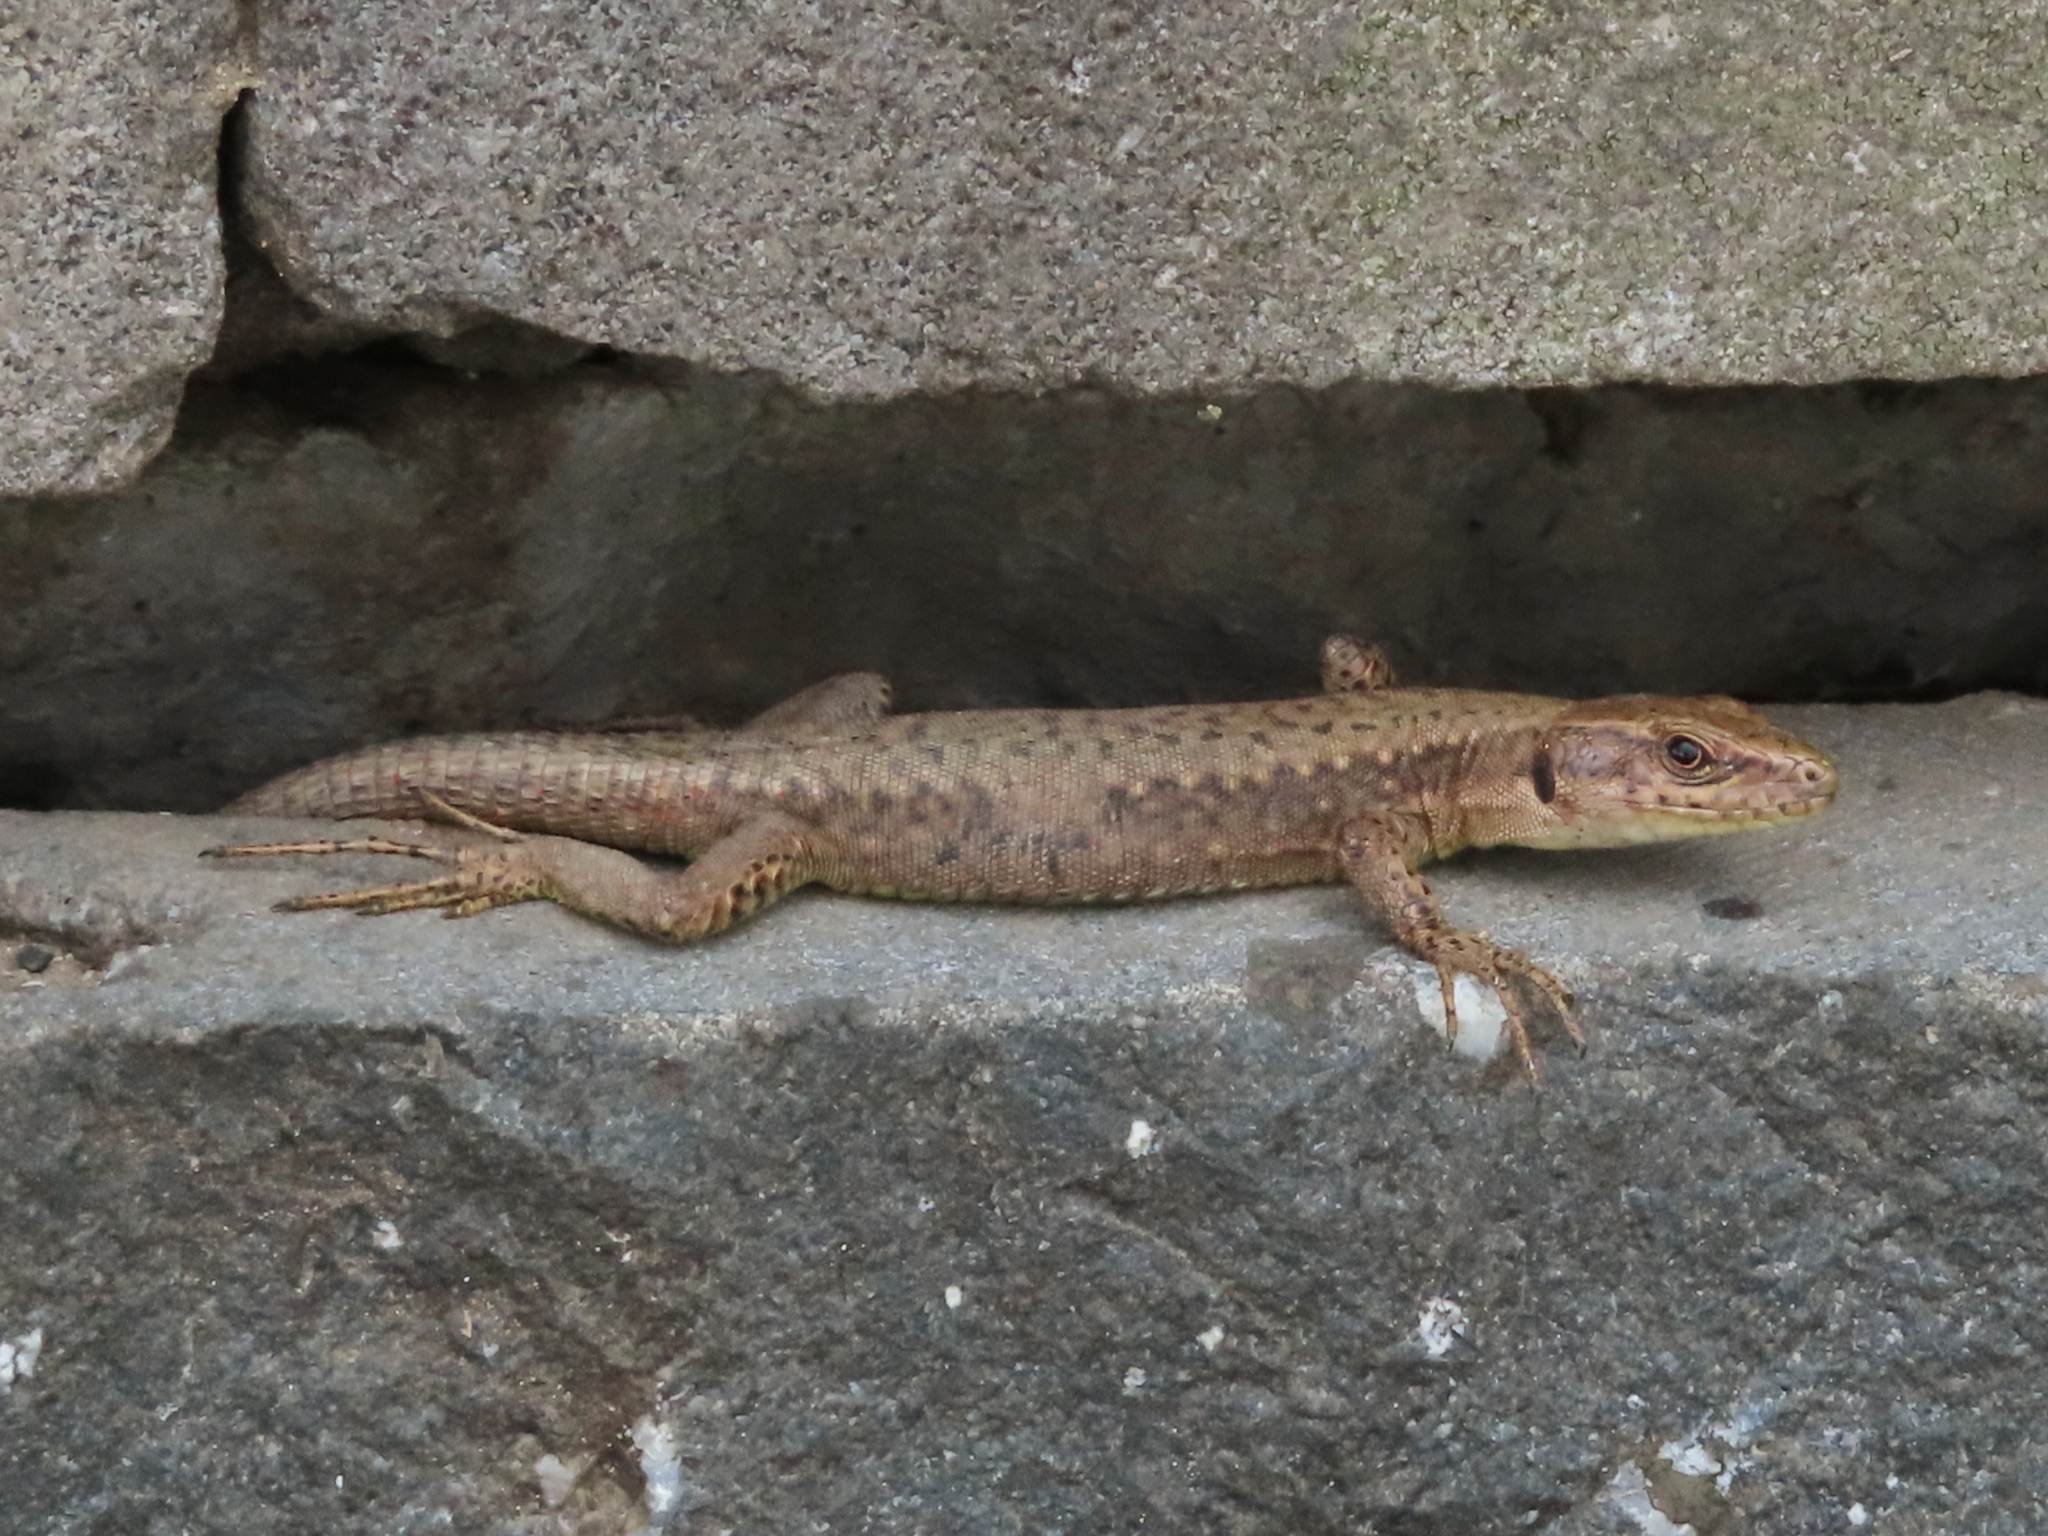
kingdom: Animalia
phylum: Chordata
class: Squamata
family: Lacertidae
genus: Darevskia
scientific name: Darevskia mixta
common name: Ajarian lizard
